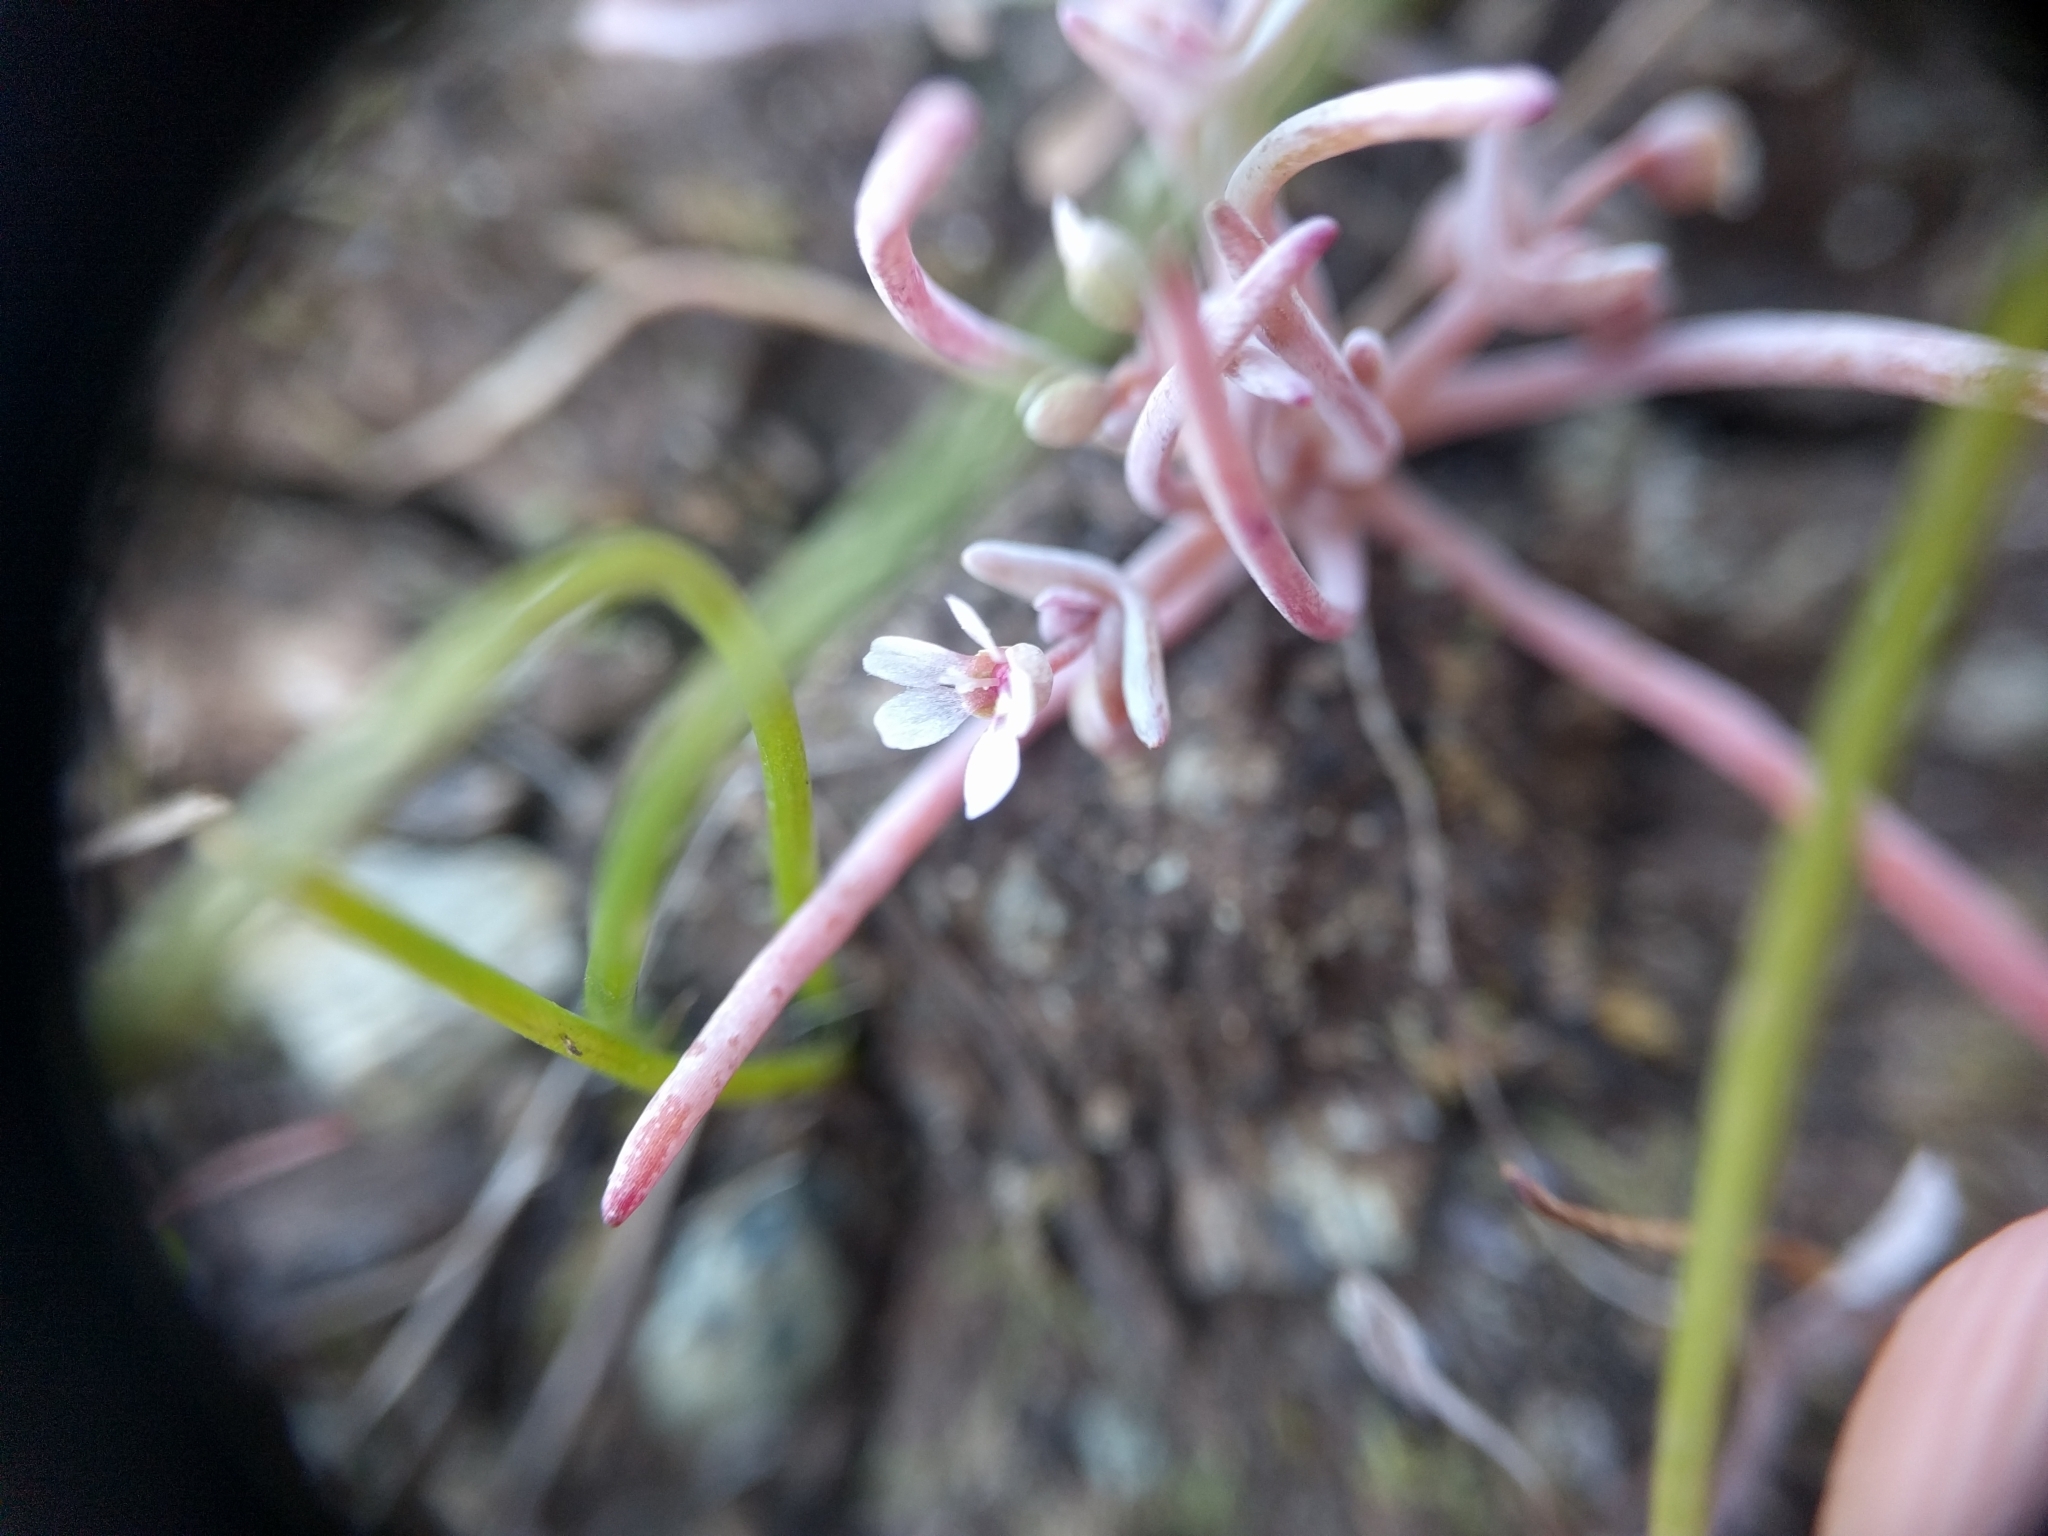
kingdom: Plantae
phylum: Tracheophyta
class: Magnoliopsida
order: Caryophyllales
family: Montiaceae
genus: Claytonia
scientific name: Claytonia exigua
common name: Pale spring beauty
